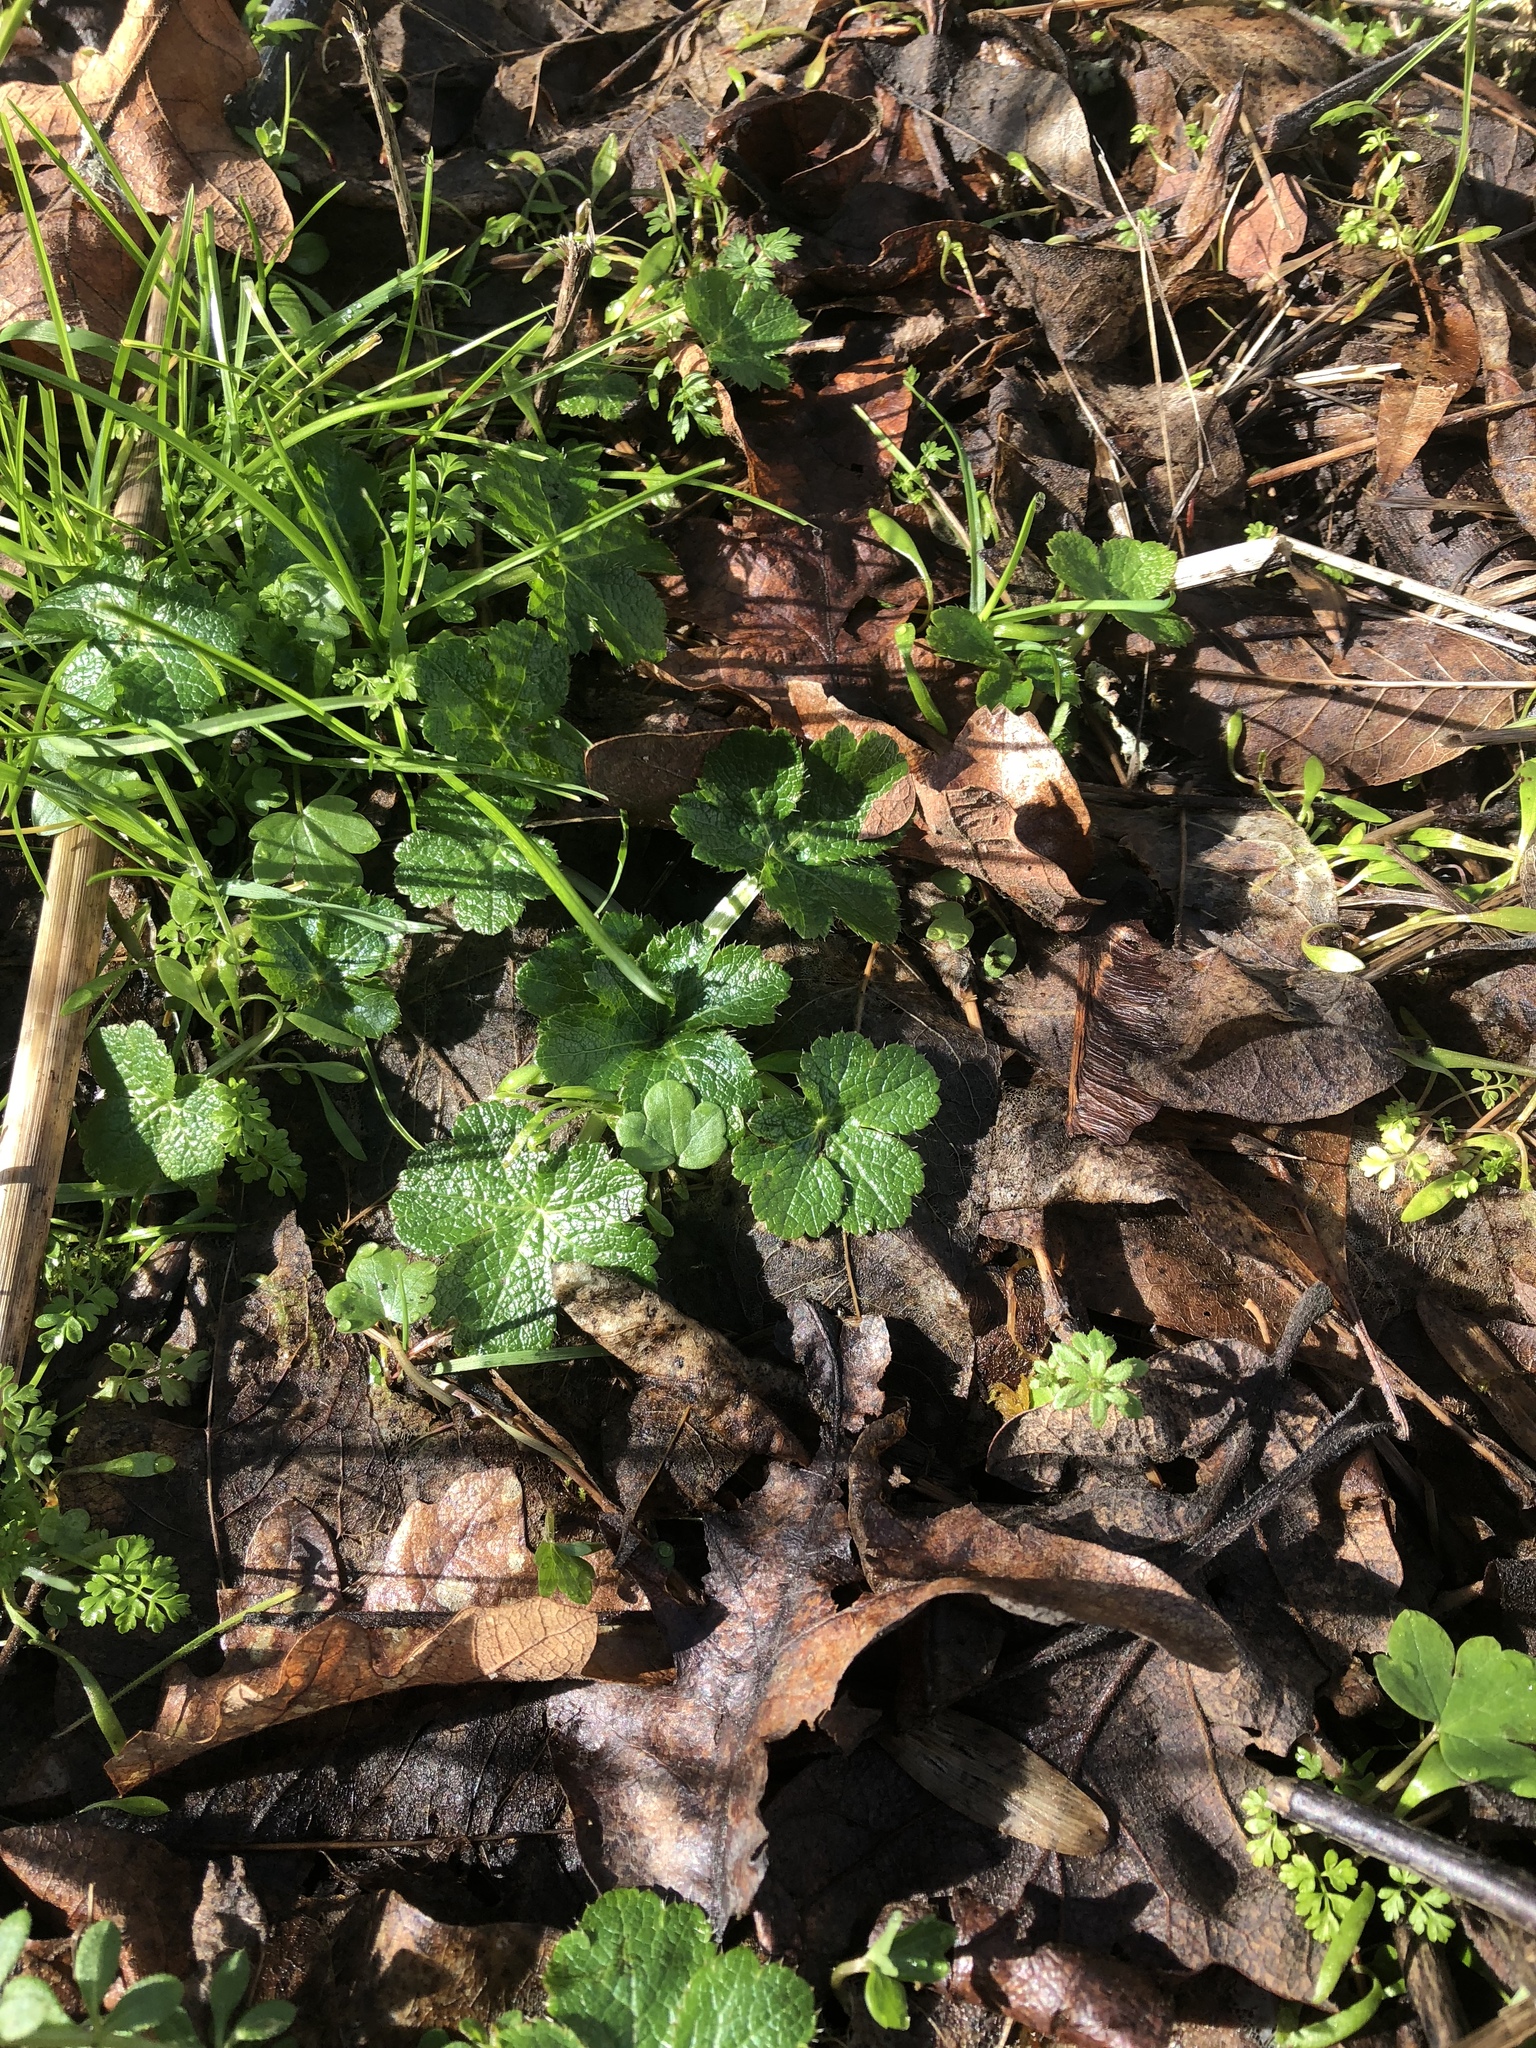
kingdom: Plantae
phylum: Tracheophyta
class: Magnoliopsida
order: Apiales
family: Apiaceae
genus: Sanicula
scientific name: Sanicula crassicaulis
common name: Western snakeroot
